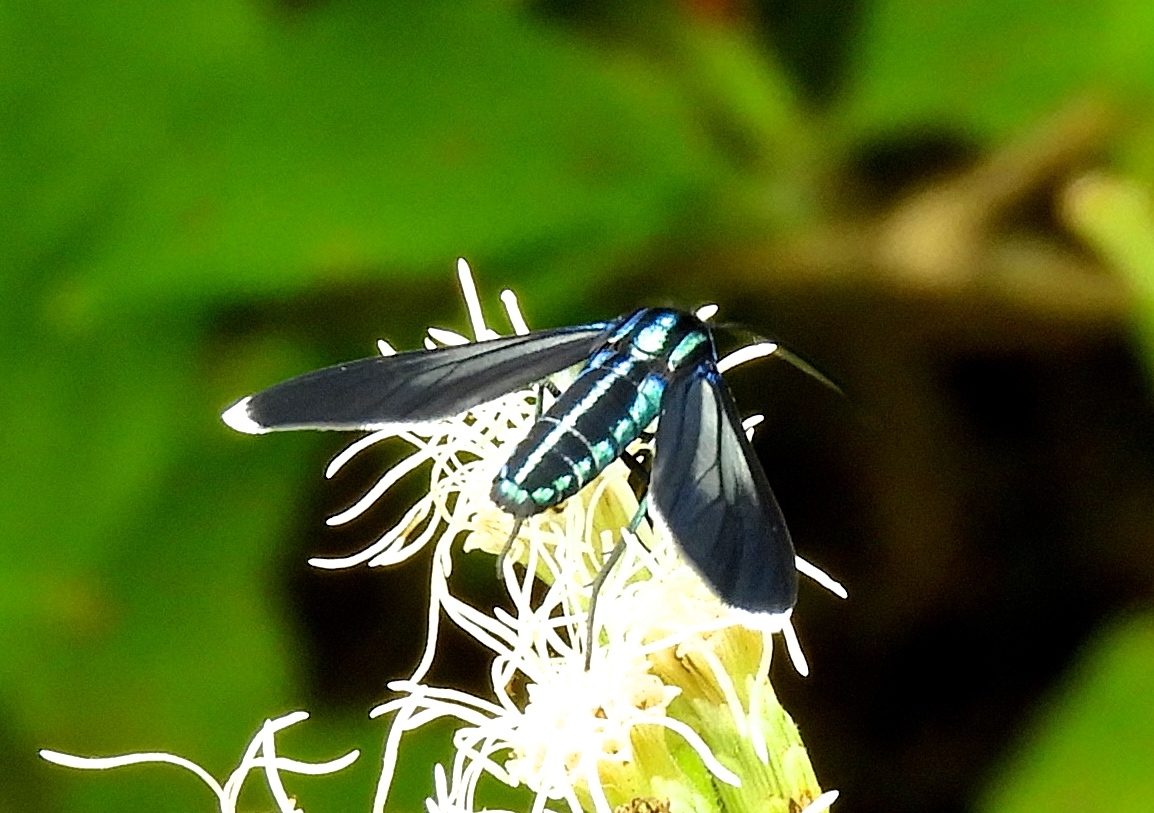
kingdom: Animalia
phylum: Arthropoda
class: Insecta
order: Lepidoptera
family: Erebidae
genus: Uranophora
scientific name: Uranophora leucotela
